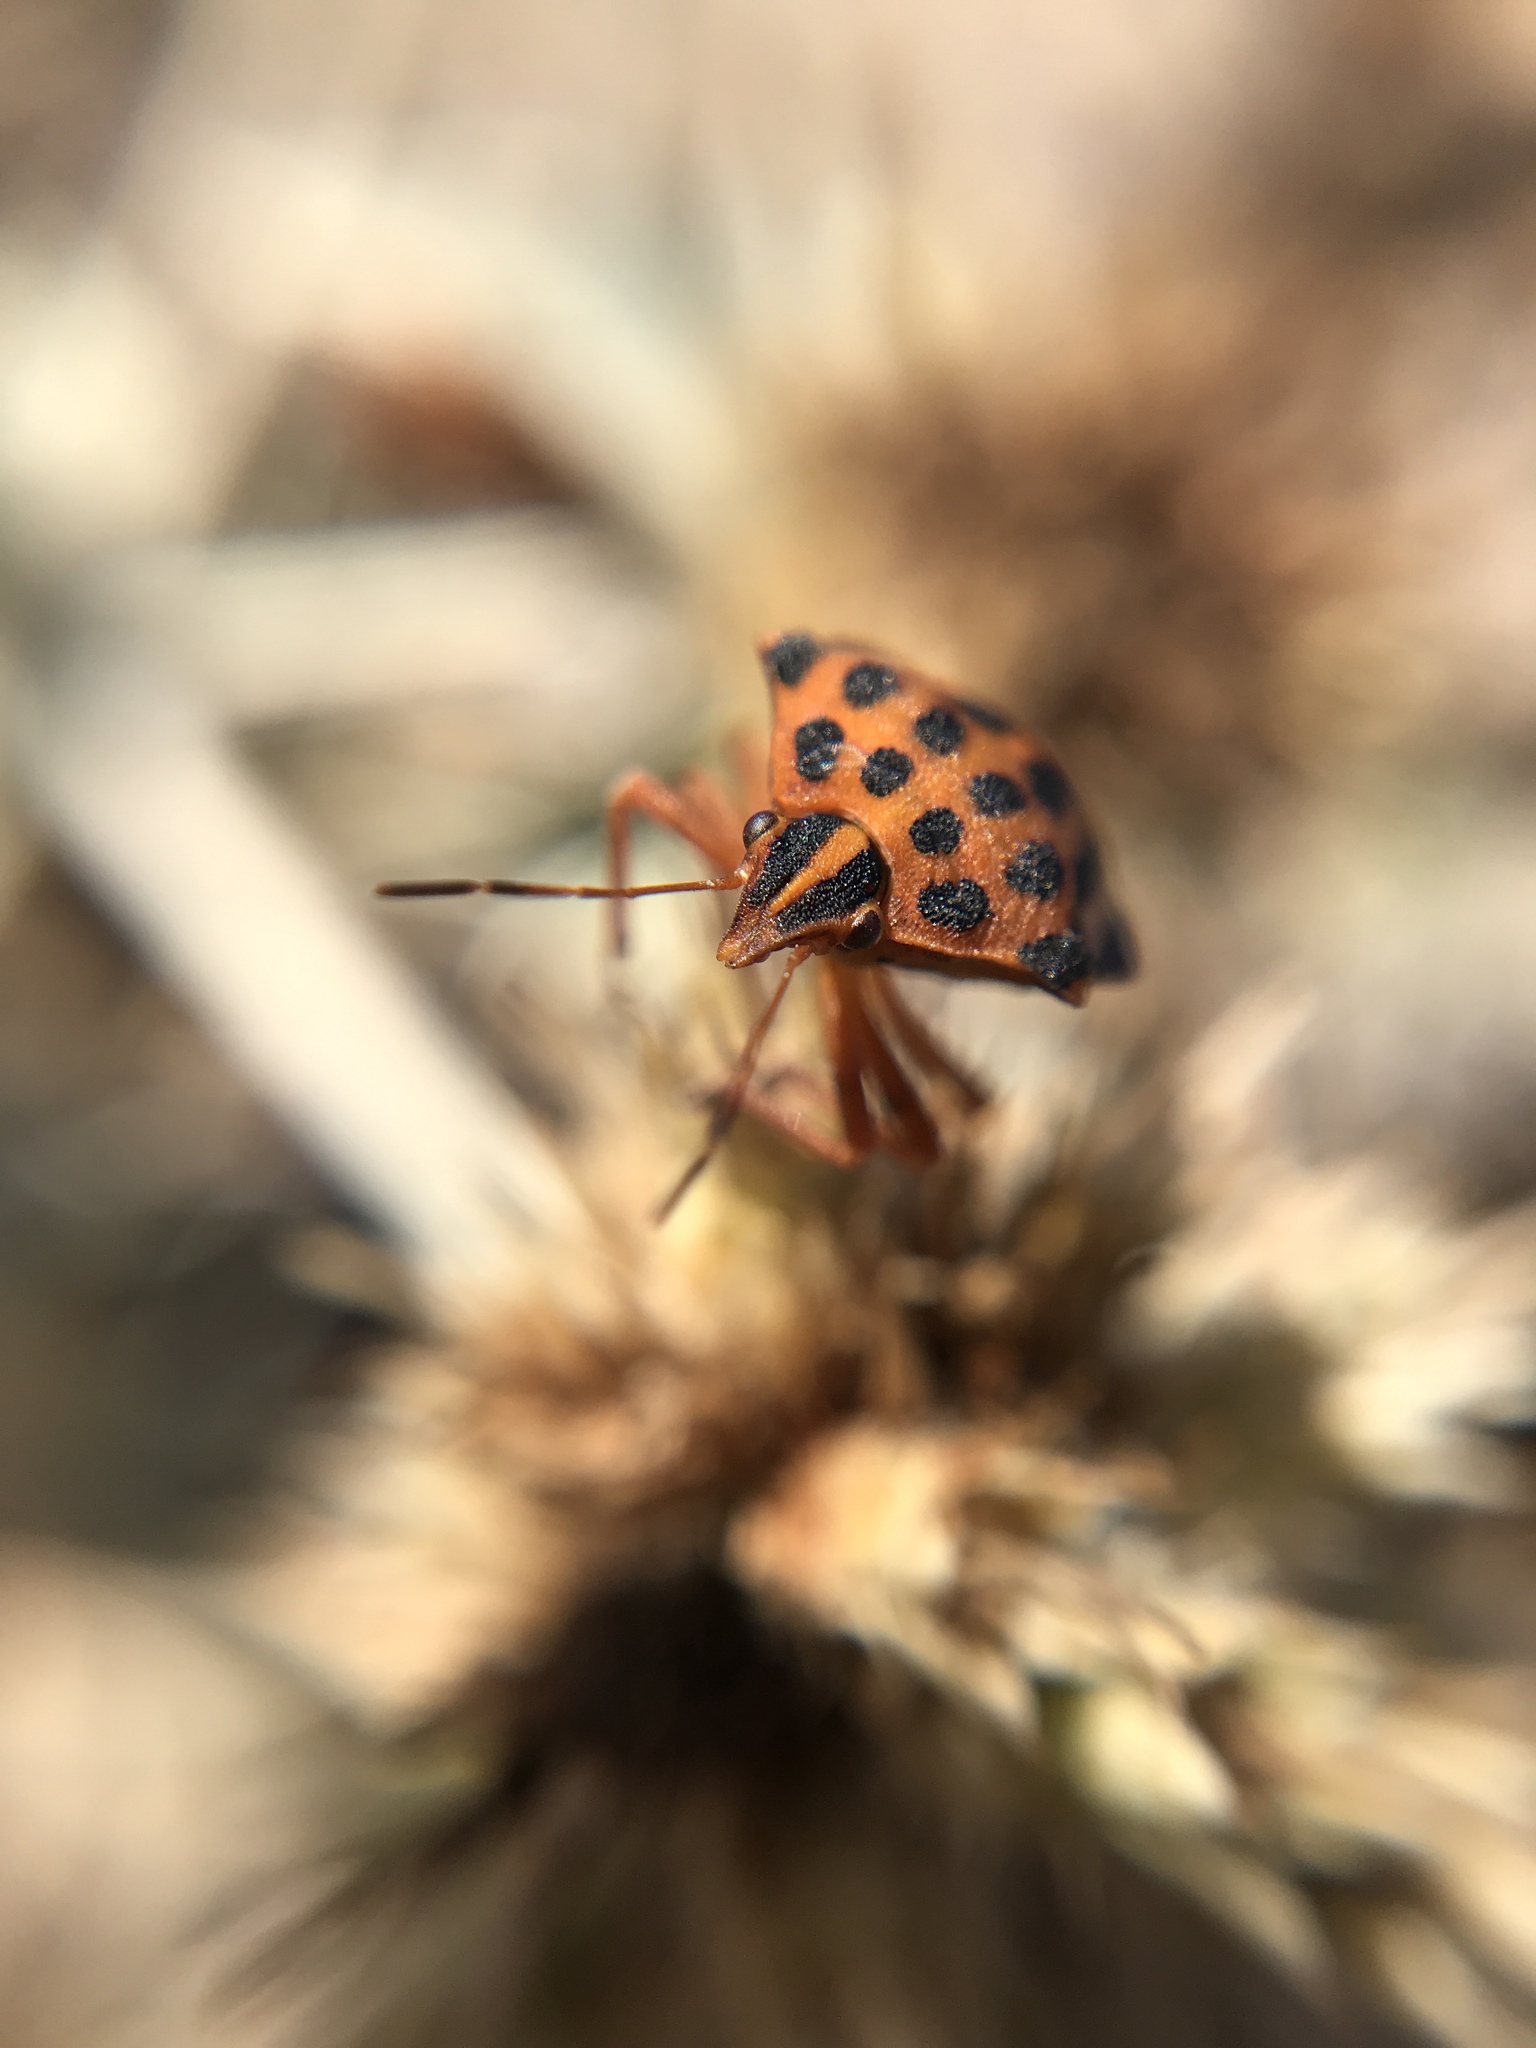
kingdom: Animalia
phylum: Arthropoda
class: Insecta
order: Hemiptera
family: Pentatomidae
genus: Graphosoma
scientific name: Graphosoma semipunctatum
